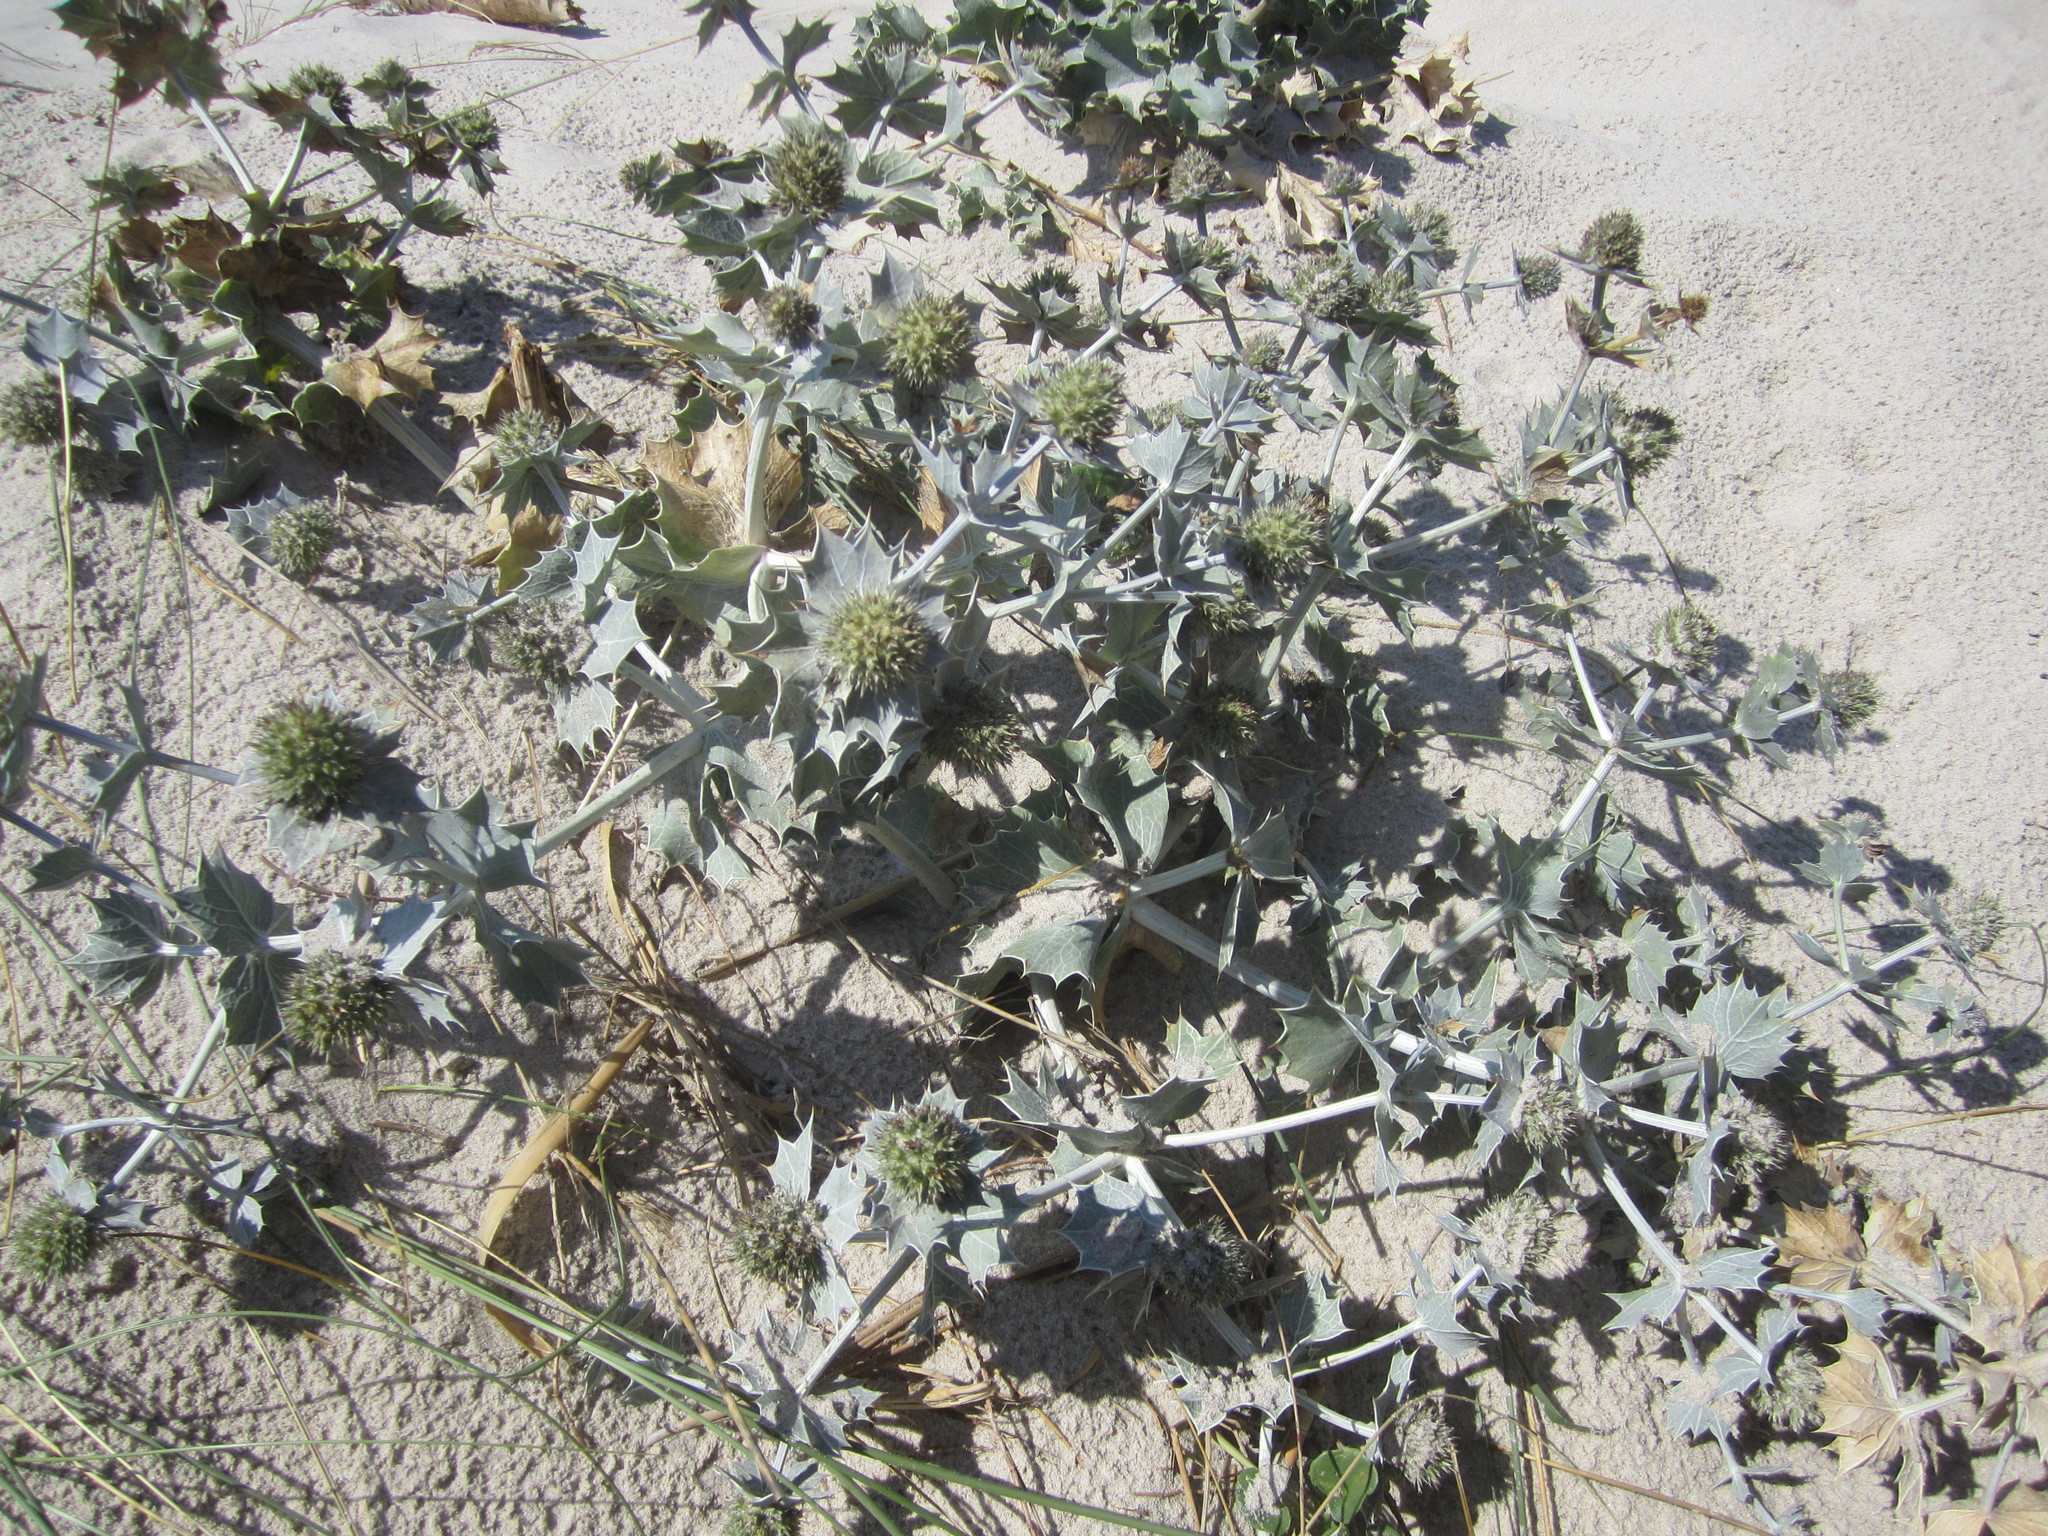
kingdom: Plantae
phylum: Tracheophyta
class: Magnoliopsida
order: Apiales
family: Apiaceae
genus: Eryngium
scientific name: Eryngium maritimum
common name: Sea-holly
